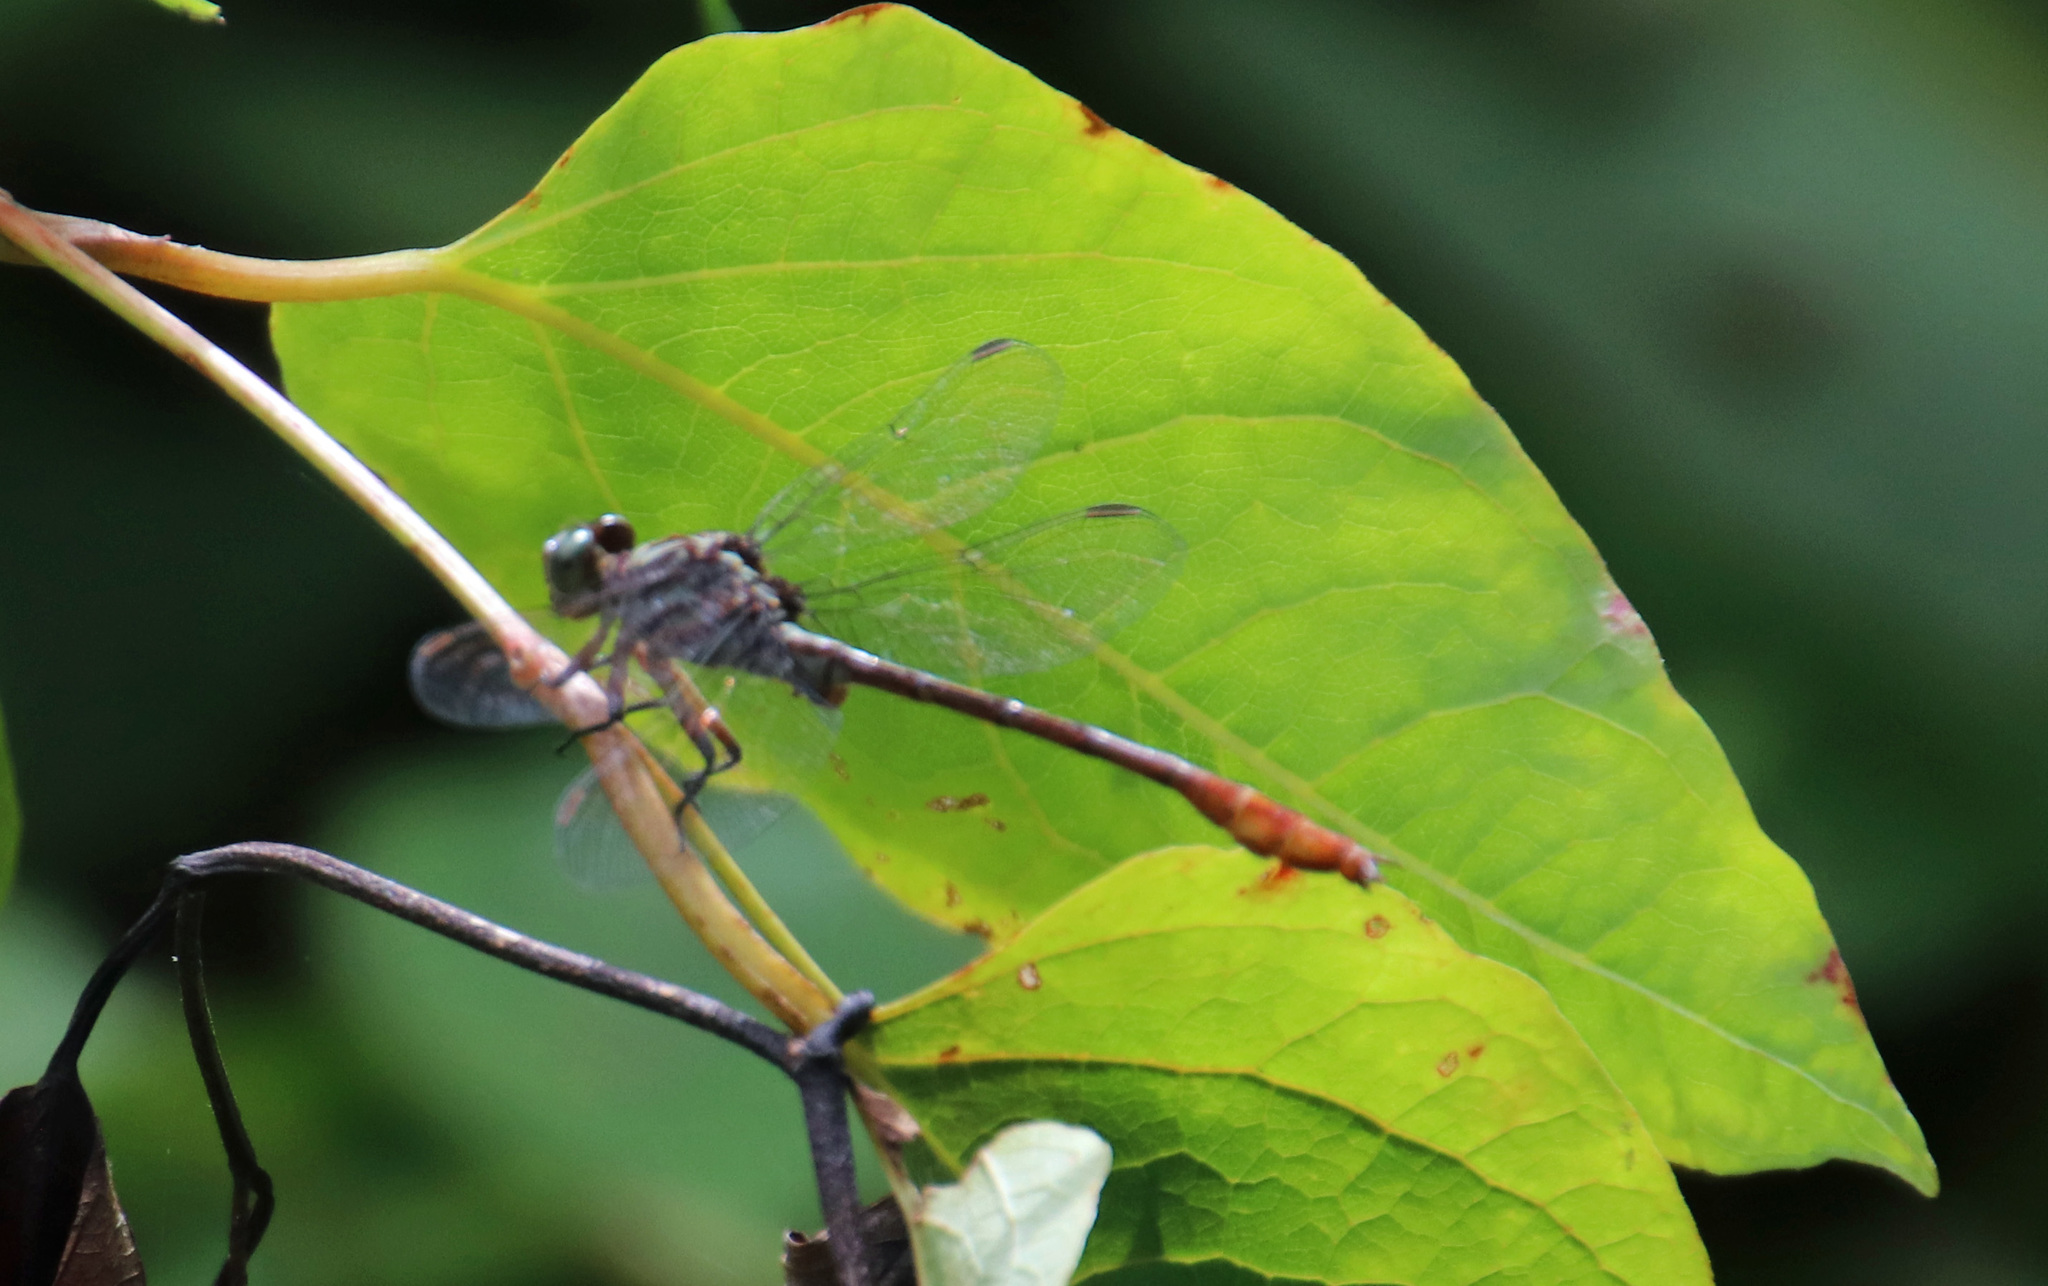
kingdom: Animalia
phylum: Arthropoda
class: Insecta
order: Odonata
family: Gomphidae
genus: Stylurus
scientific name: Stylurus plagiatus
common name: Russet-tipped clubtail
